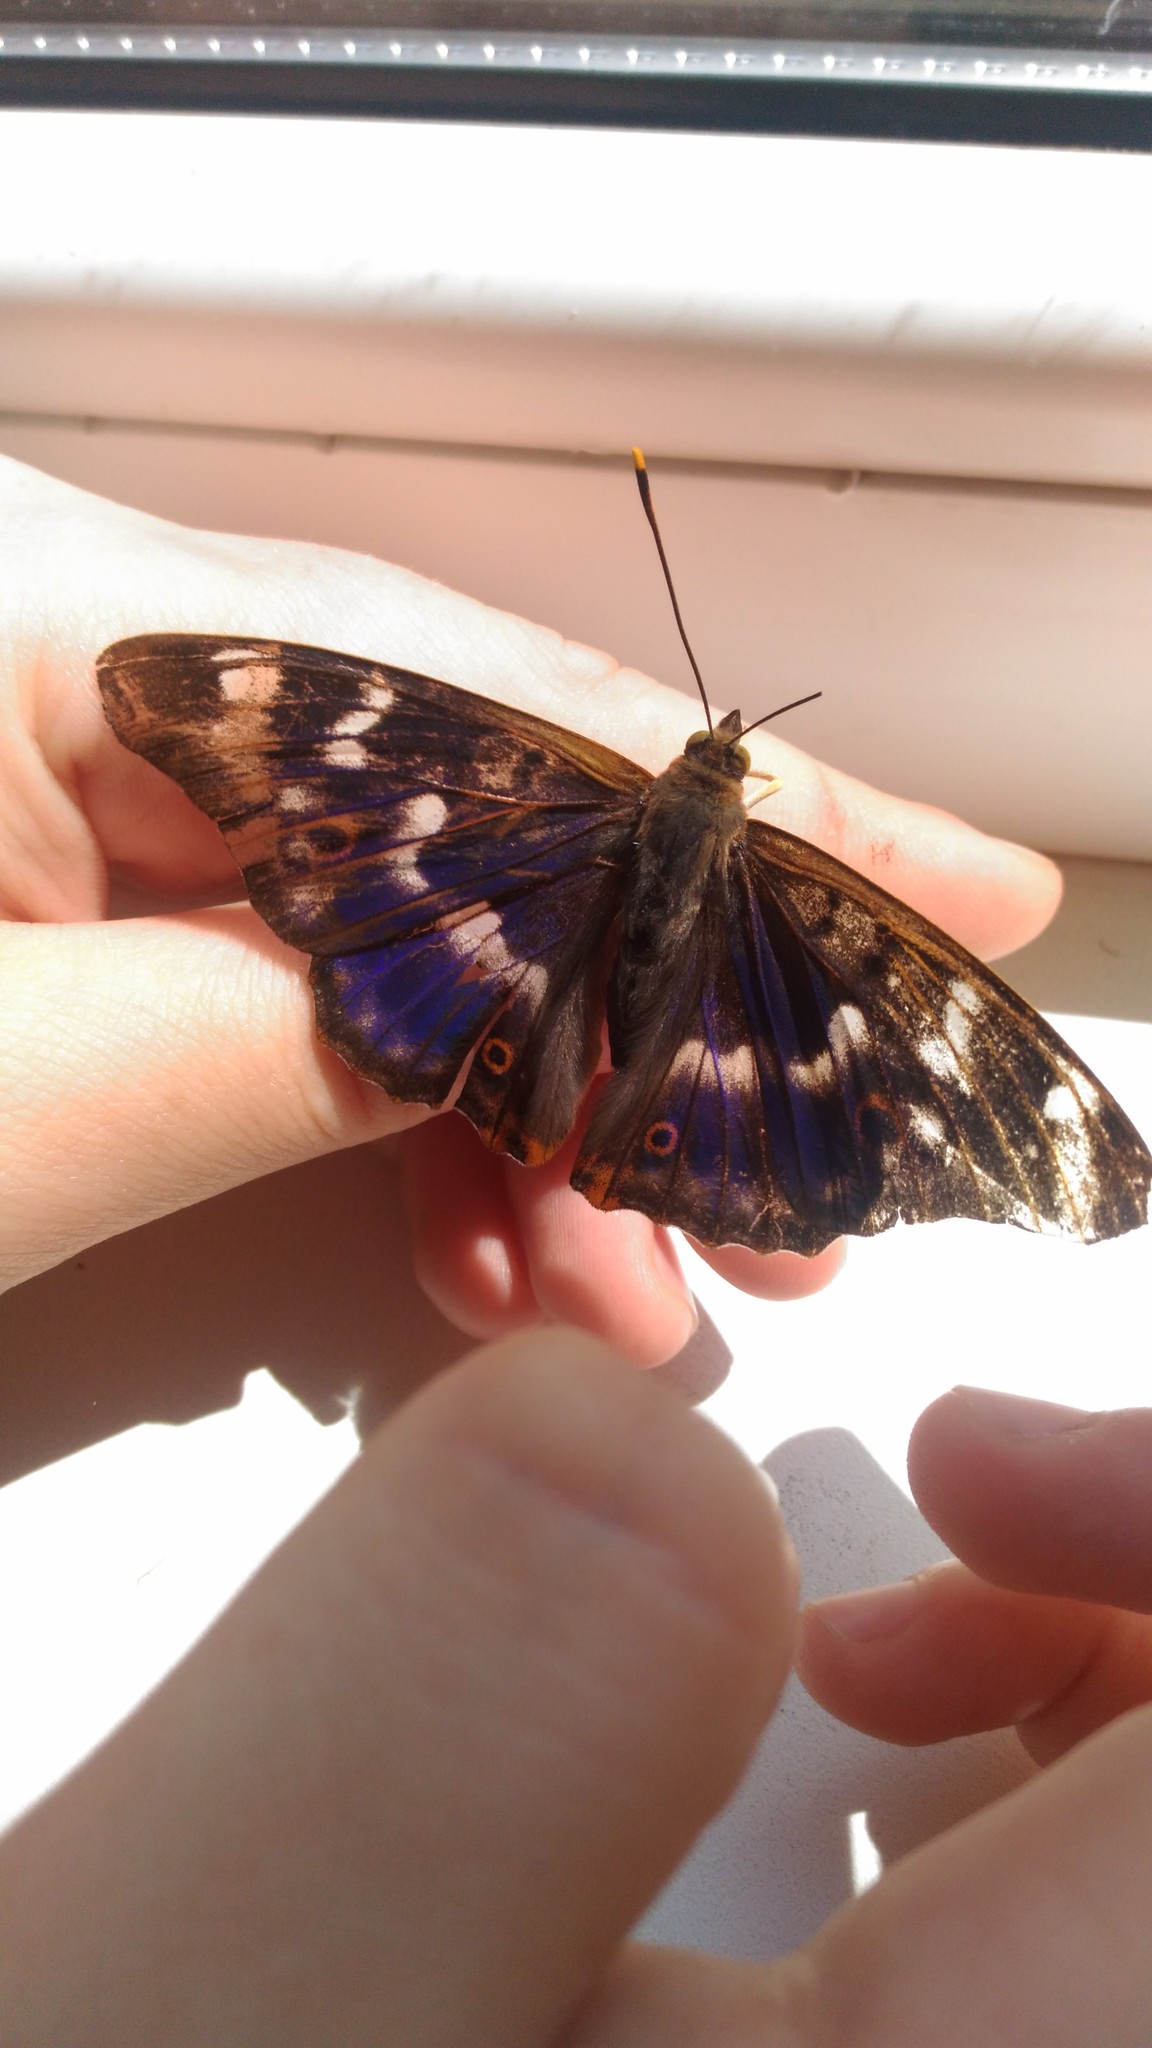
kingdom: Animalia
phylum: Arthropoda
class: Insecta
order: Lepidoptera
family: Nymphalidae
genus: Apatura
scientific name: Apatura ilia
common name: Lesser purple emperor
